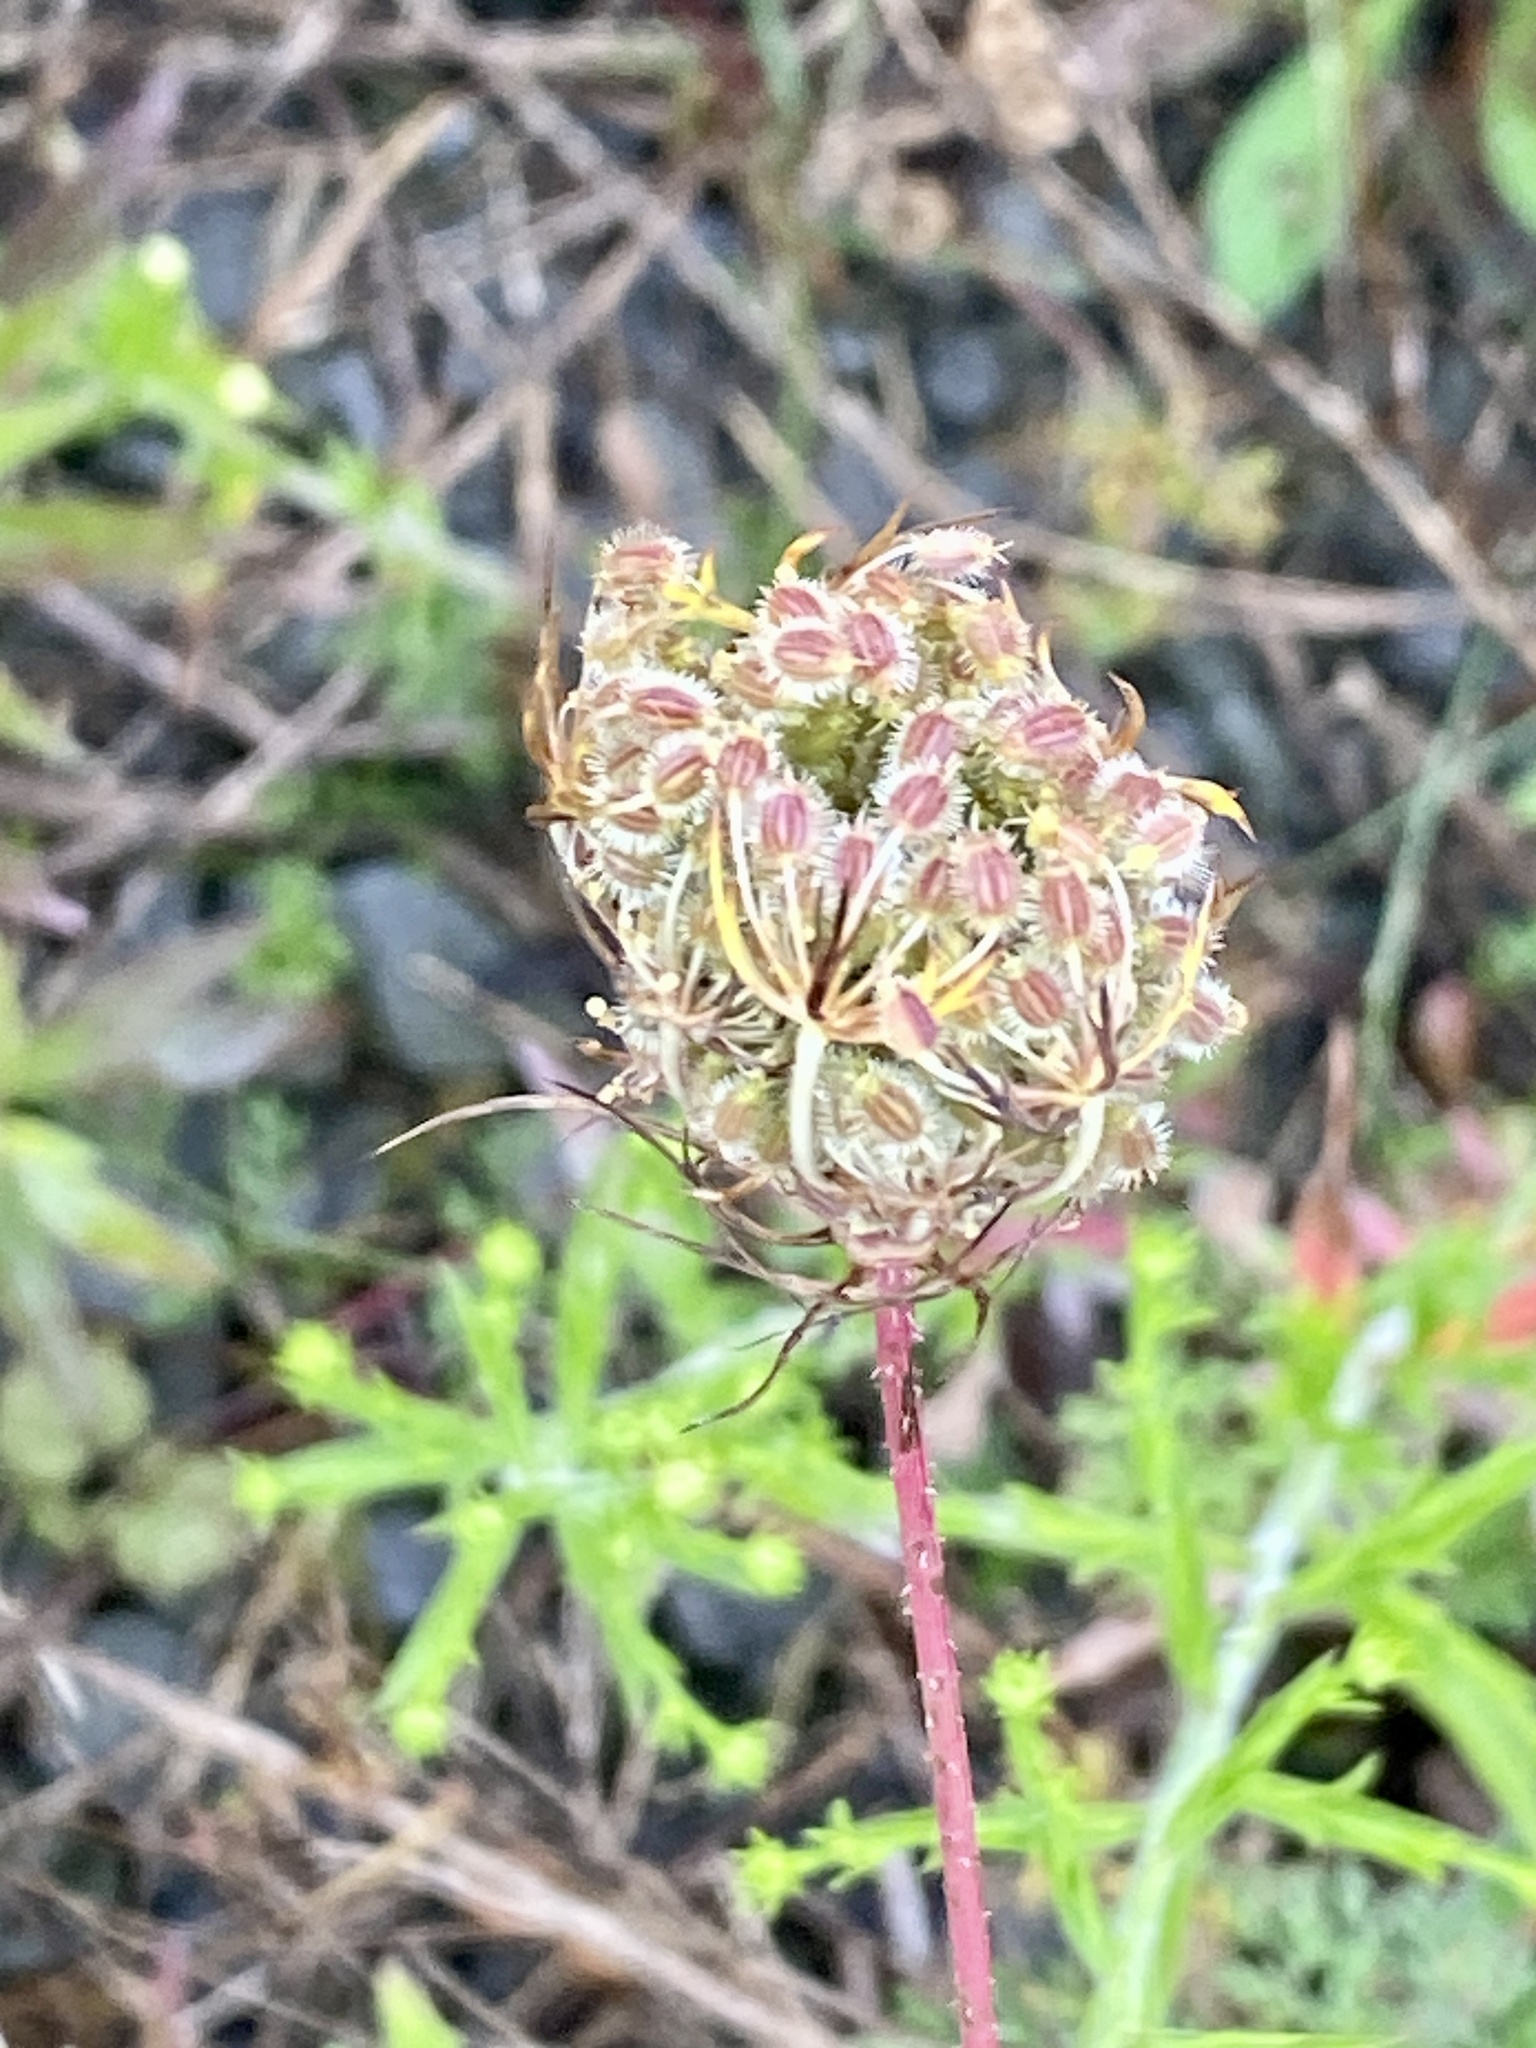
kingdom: Plantae
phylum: Tracheophyta
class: Magnoliopsida
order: Apiales
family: Apiaceae
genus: Daucus
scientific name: Daucus carota
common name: Wild carrot
